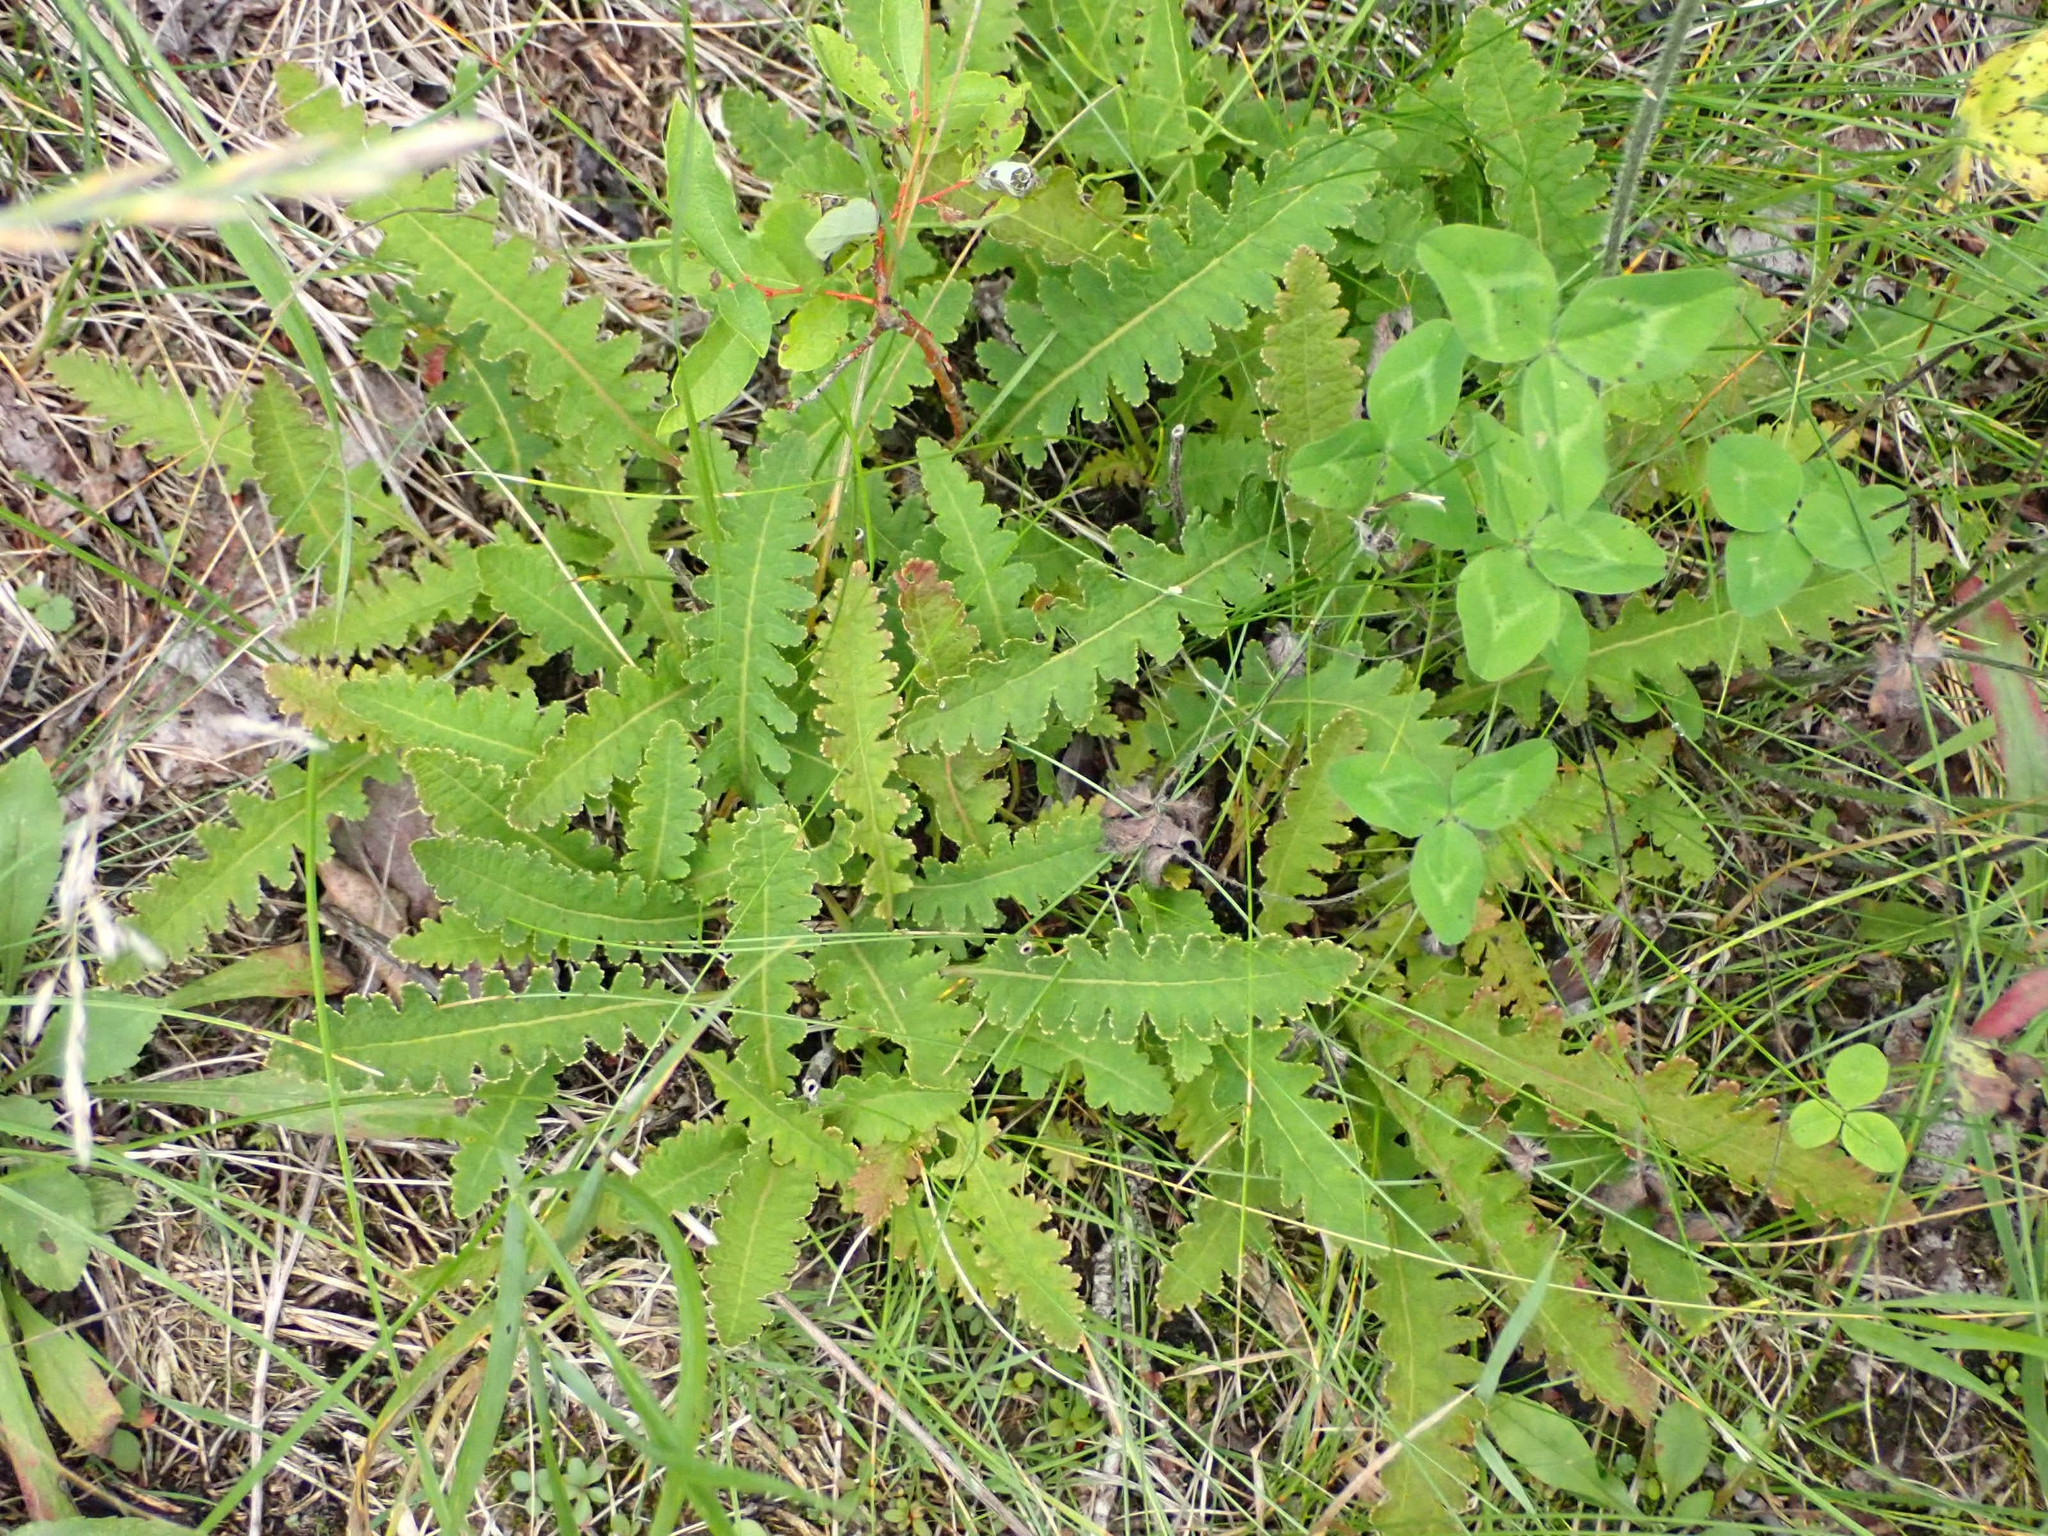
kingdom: Plantae
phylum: Tracheophyta
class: Magnoliopsida
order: Lamiales
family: Orobanchaceae
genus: Pedicularis
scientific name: Pedicularis canadensis
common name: Early lousewort
